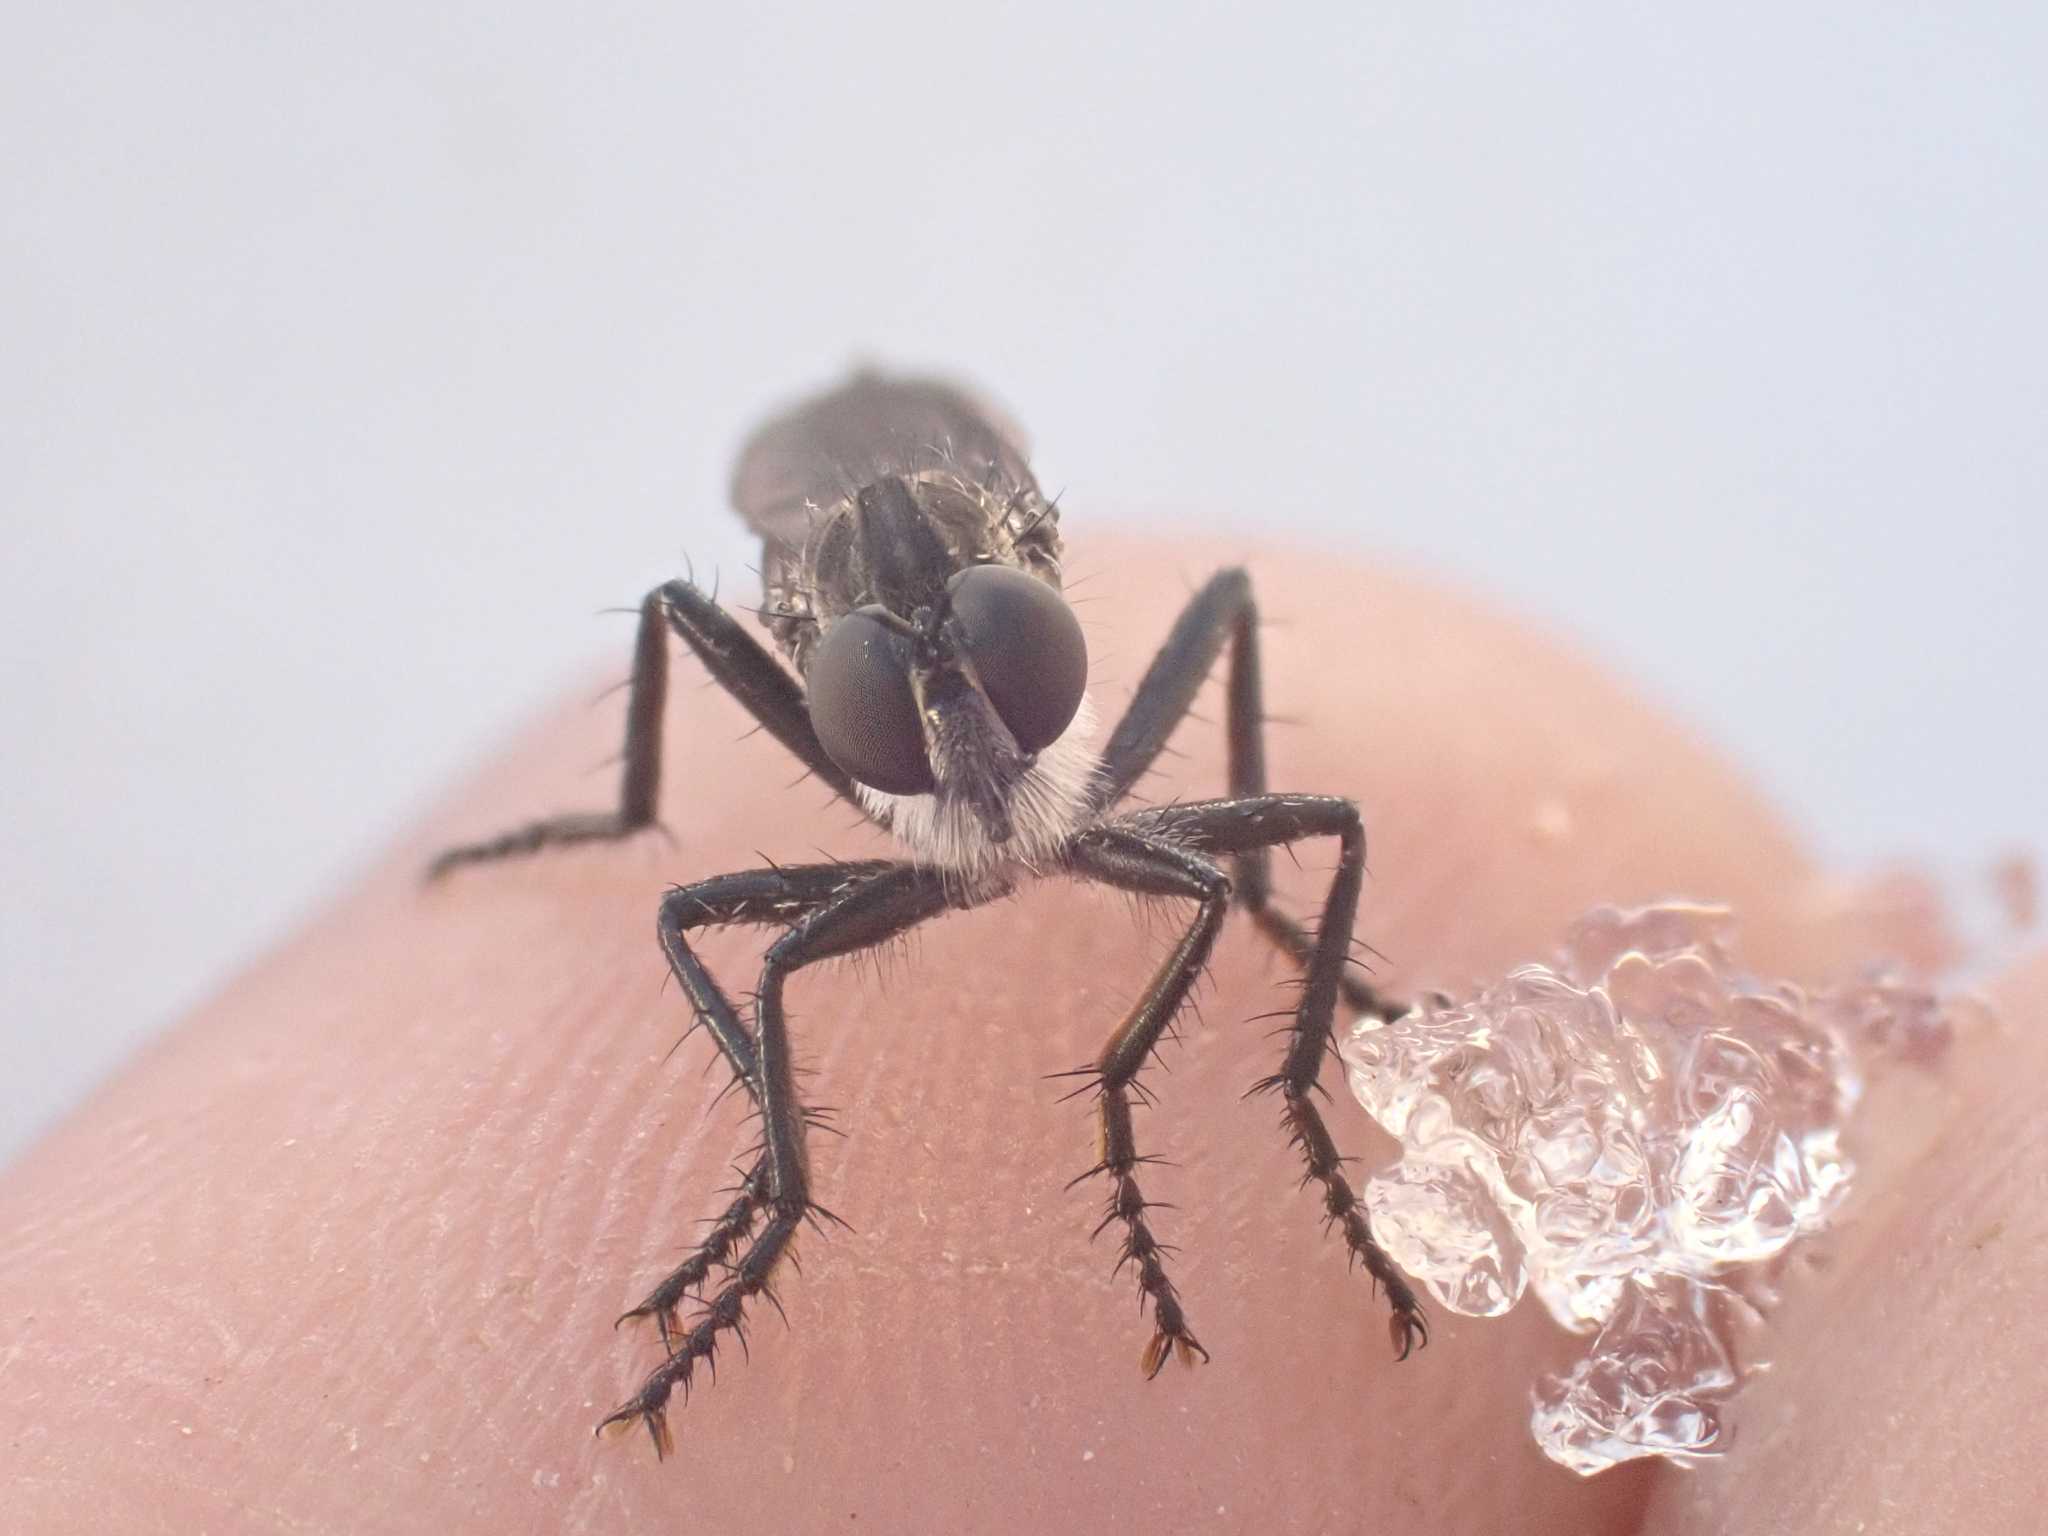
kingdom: Animalia
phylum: Arthropoda
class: Insecta
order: Diptera
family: Asilidae
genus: Rhadiurgus
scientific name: Rhadiurgus variabilis
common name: Northern robberfly
